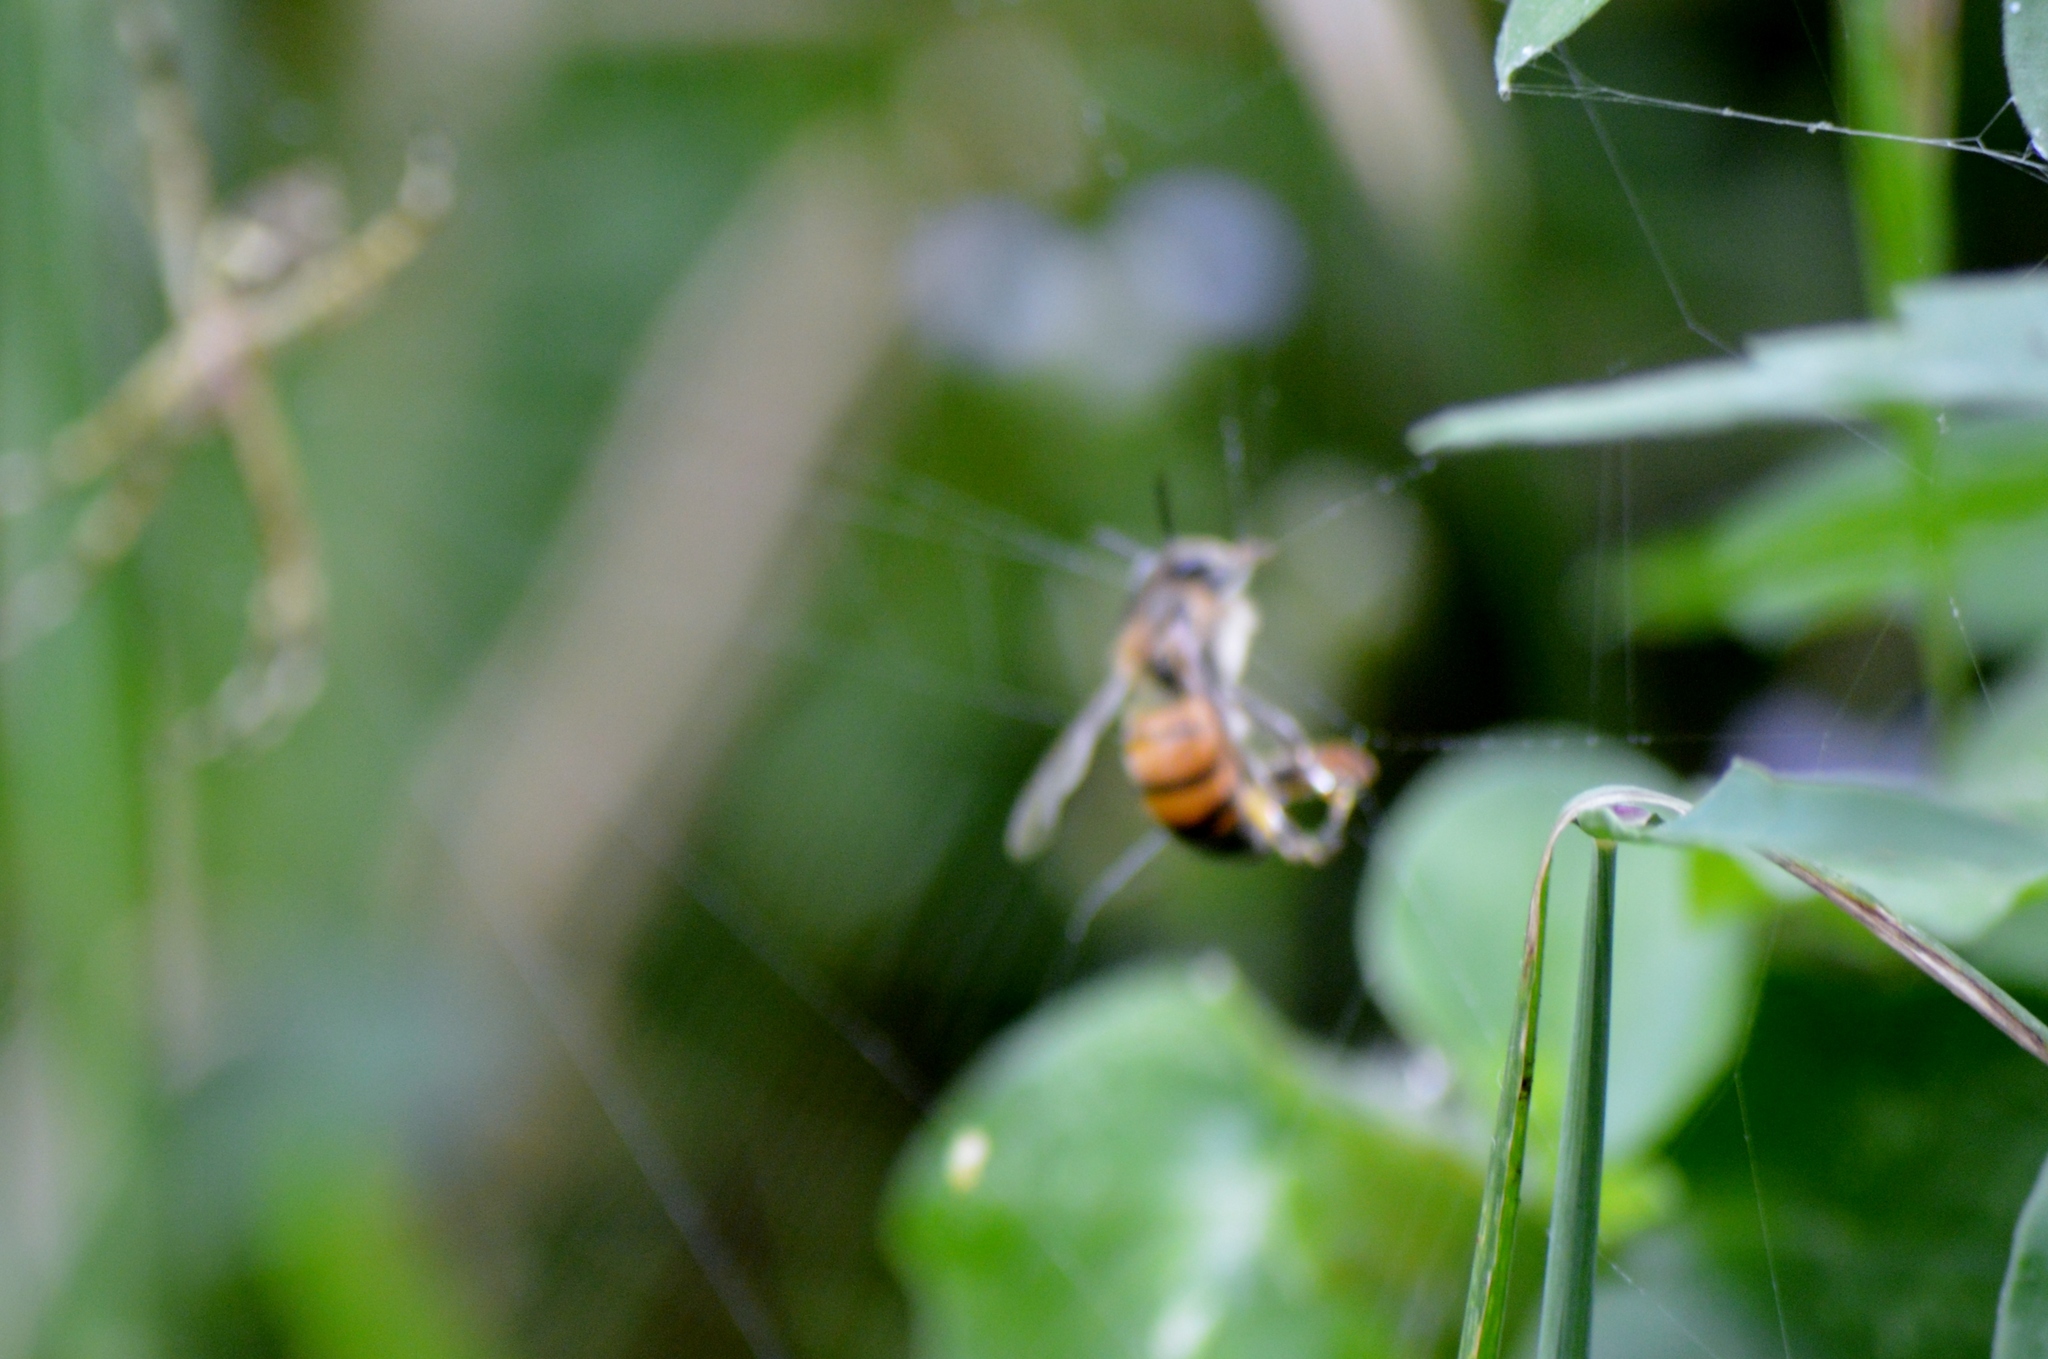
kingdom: Animalia
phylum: Arthropoda
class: Insecta
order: Hymenoptera
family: Apidae
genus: Apis
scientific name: Apis mellifera
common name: Honey bee
